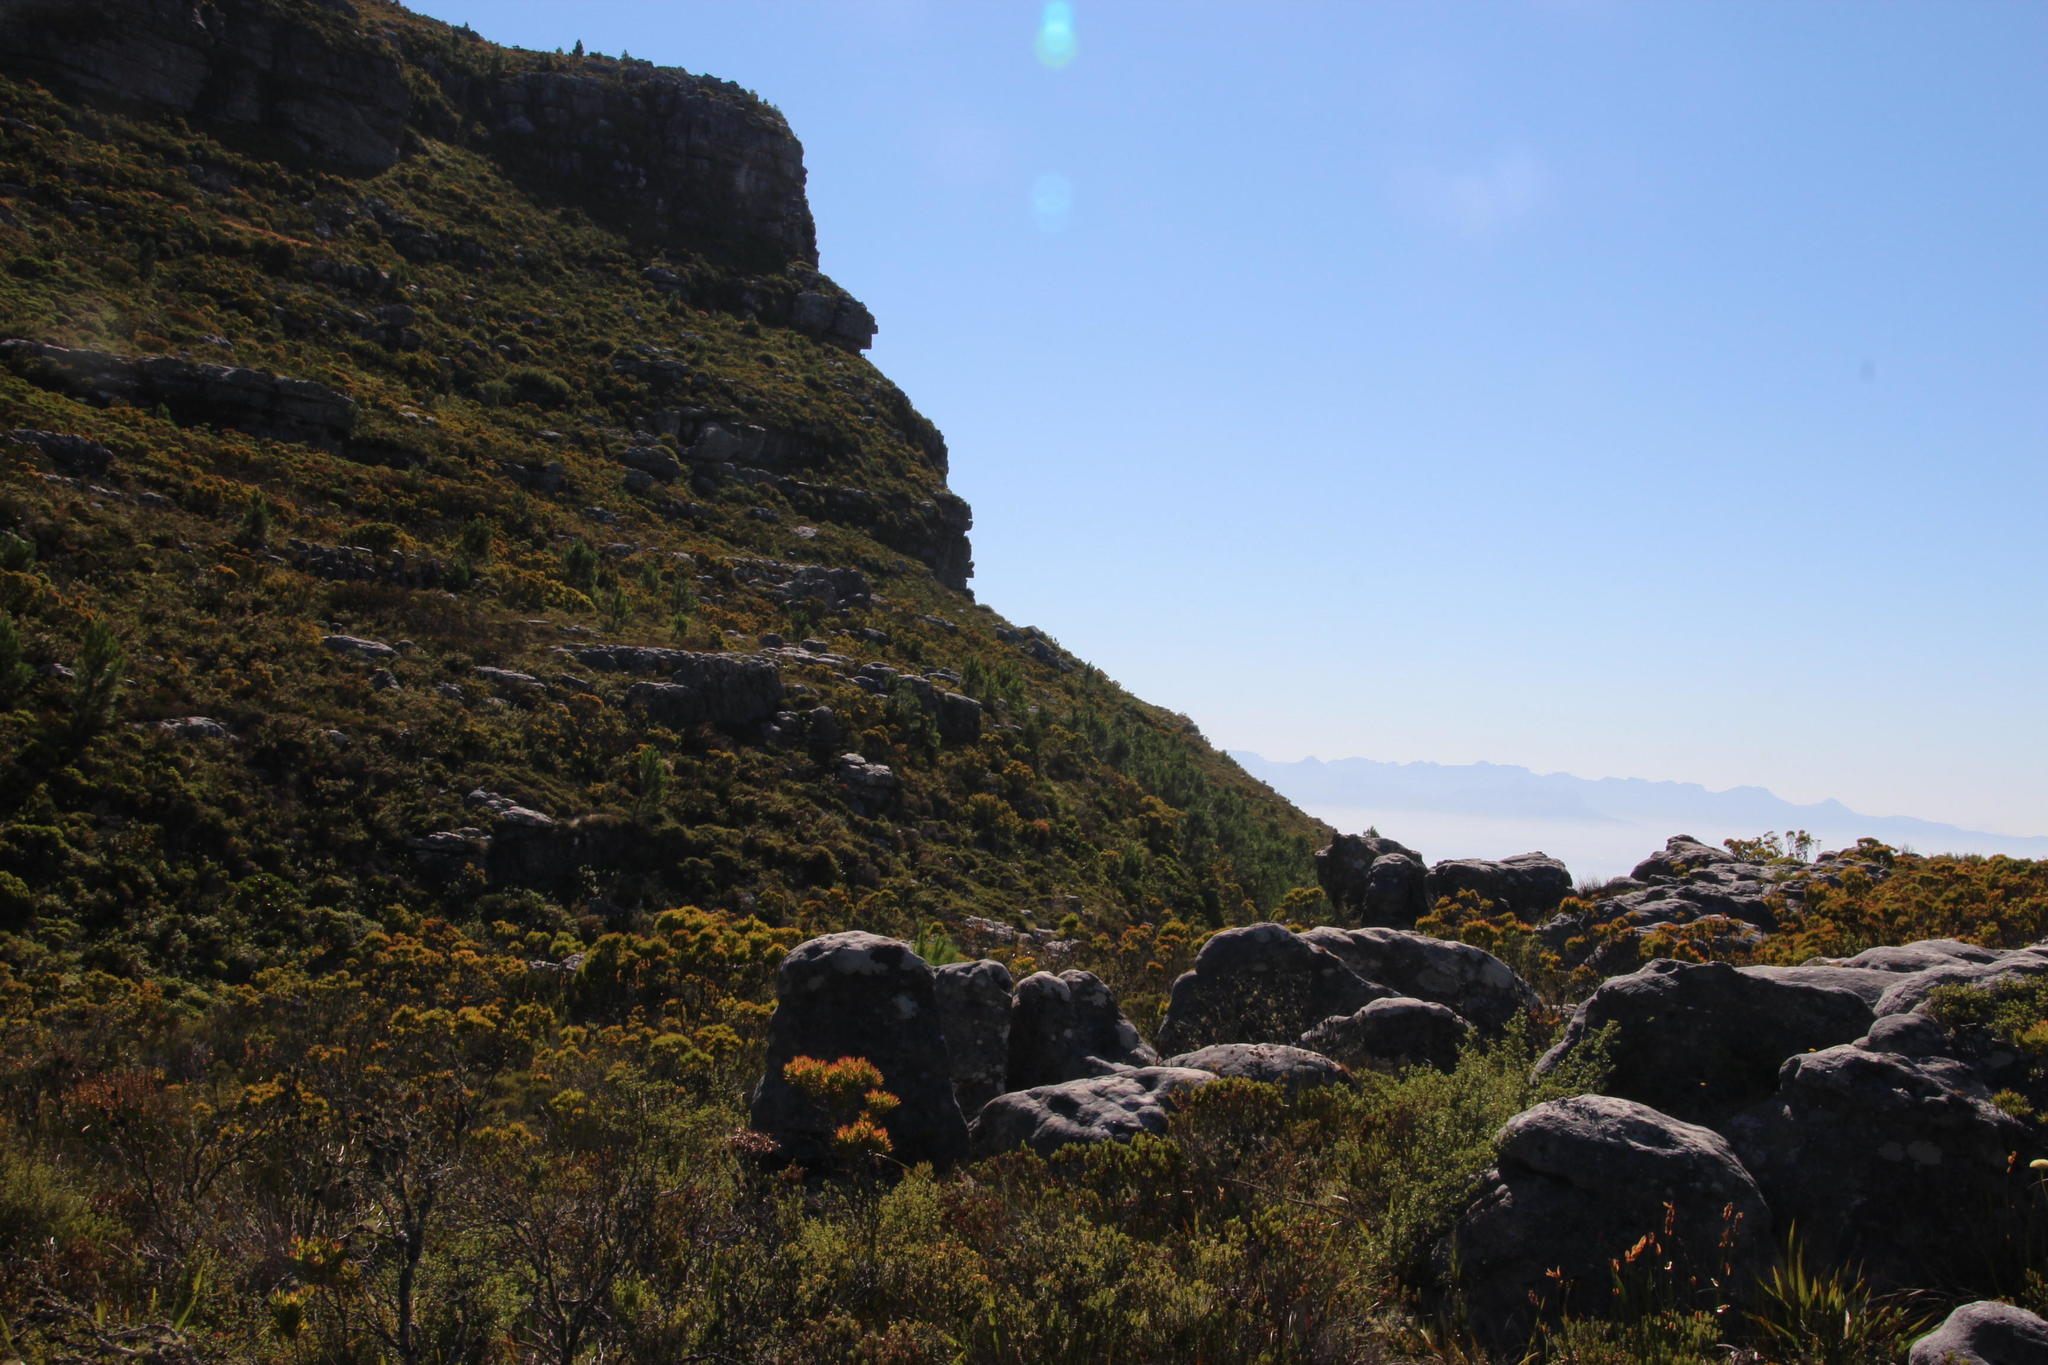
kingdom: Plantae
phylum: Tracheophyta
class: Pinopsida
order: Pinales
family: Pinaceae
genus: Pinus
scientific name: Pinus pinaster
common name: Maritime pine
